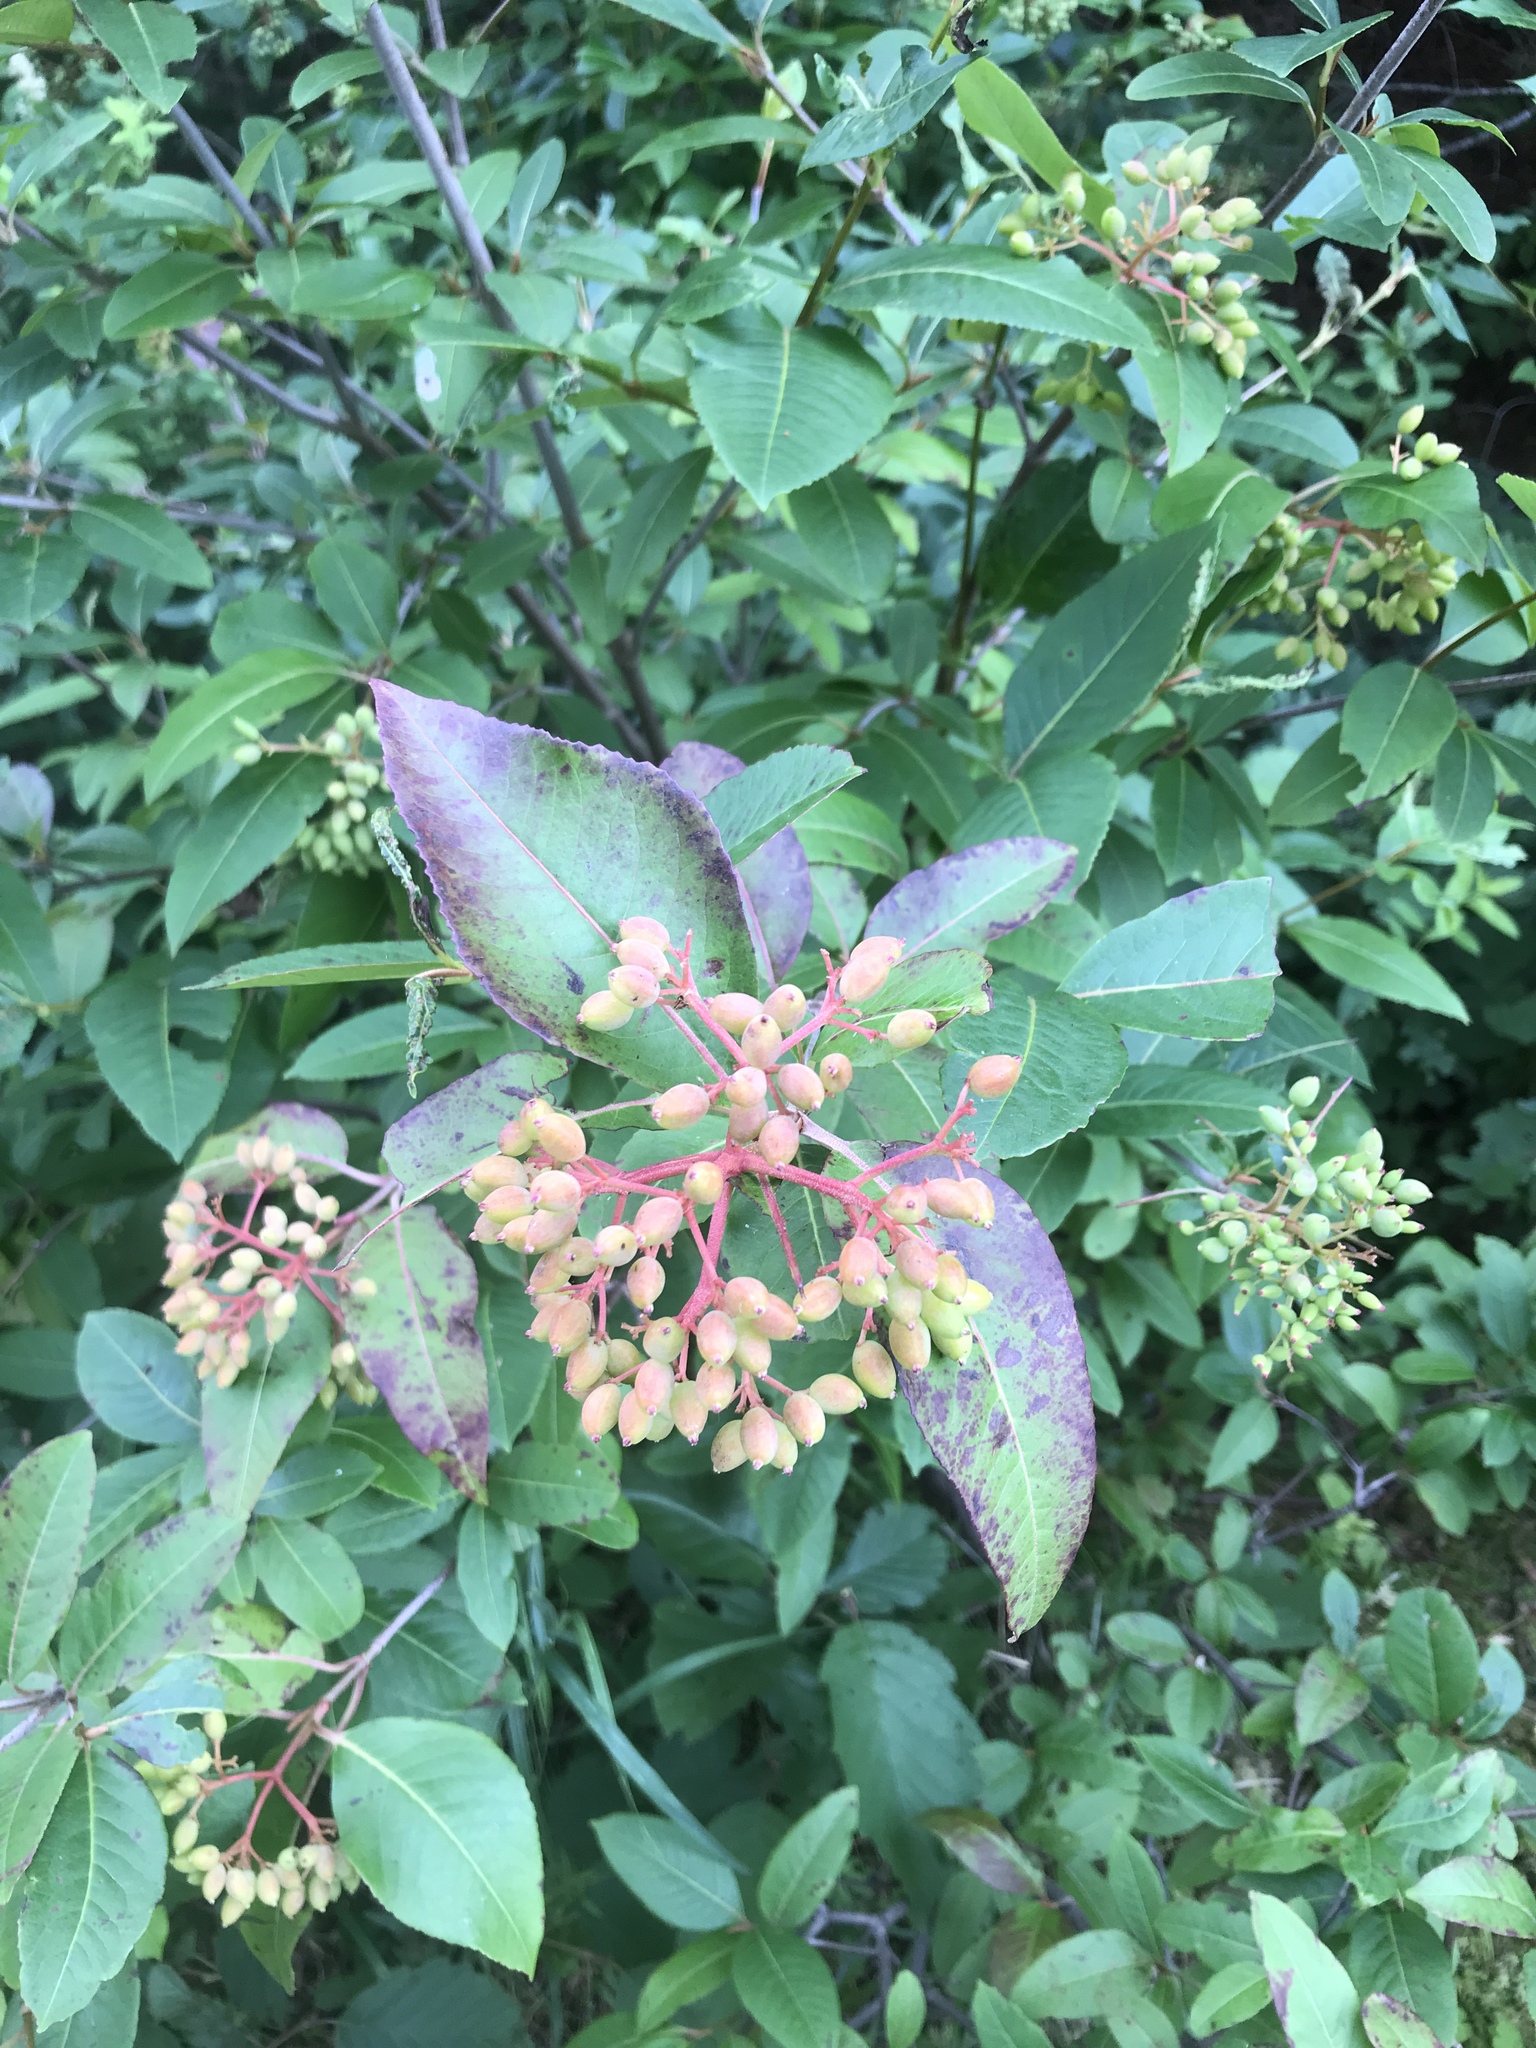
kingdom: Plantae
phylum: Tracheophyta
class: Magnoliopsida
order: Dipsacales
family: Viburnaceae
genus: Viburnum
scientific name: Viburnum cassinoides
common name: Swamp haw
